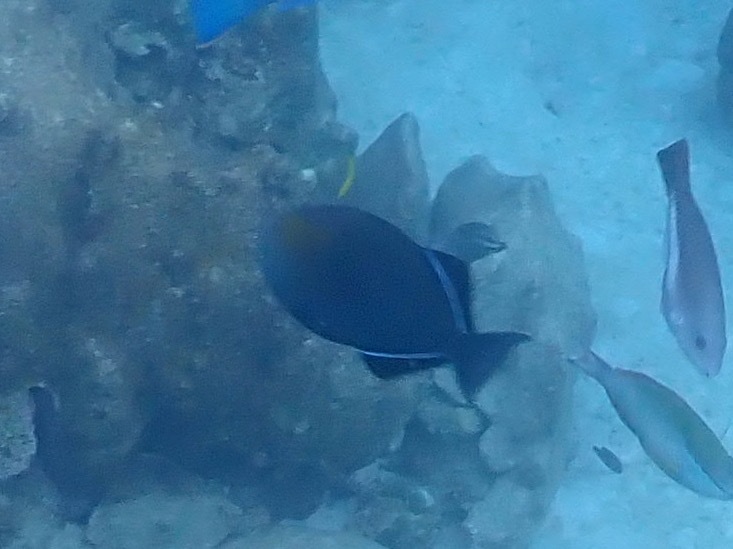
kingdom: Animalia
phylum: Chordata
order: Tetraodontiformes
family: Balistidae
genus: Melichthys
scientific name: Melichthys niger
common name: Black durgon
